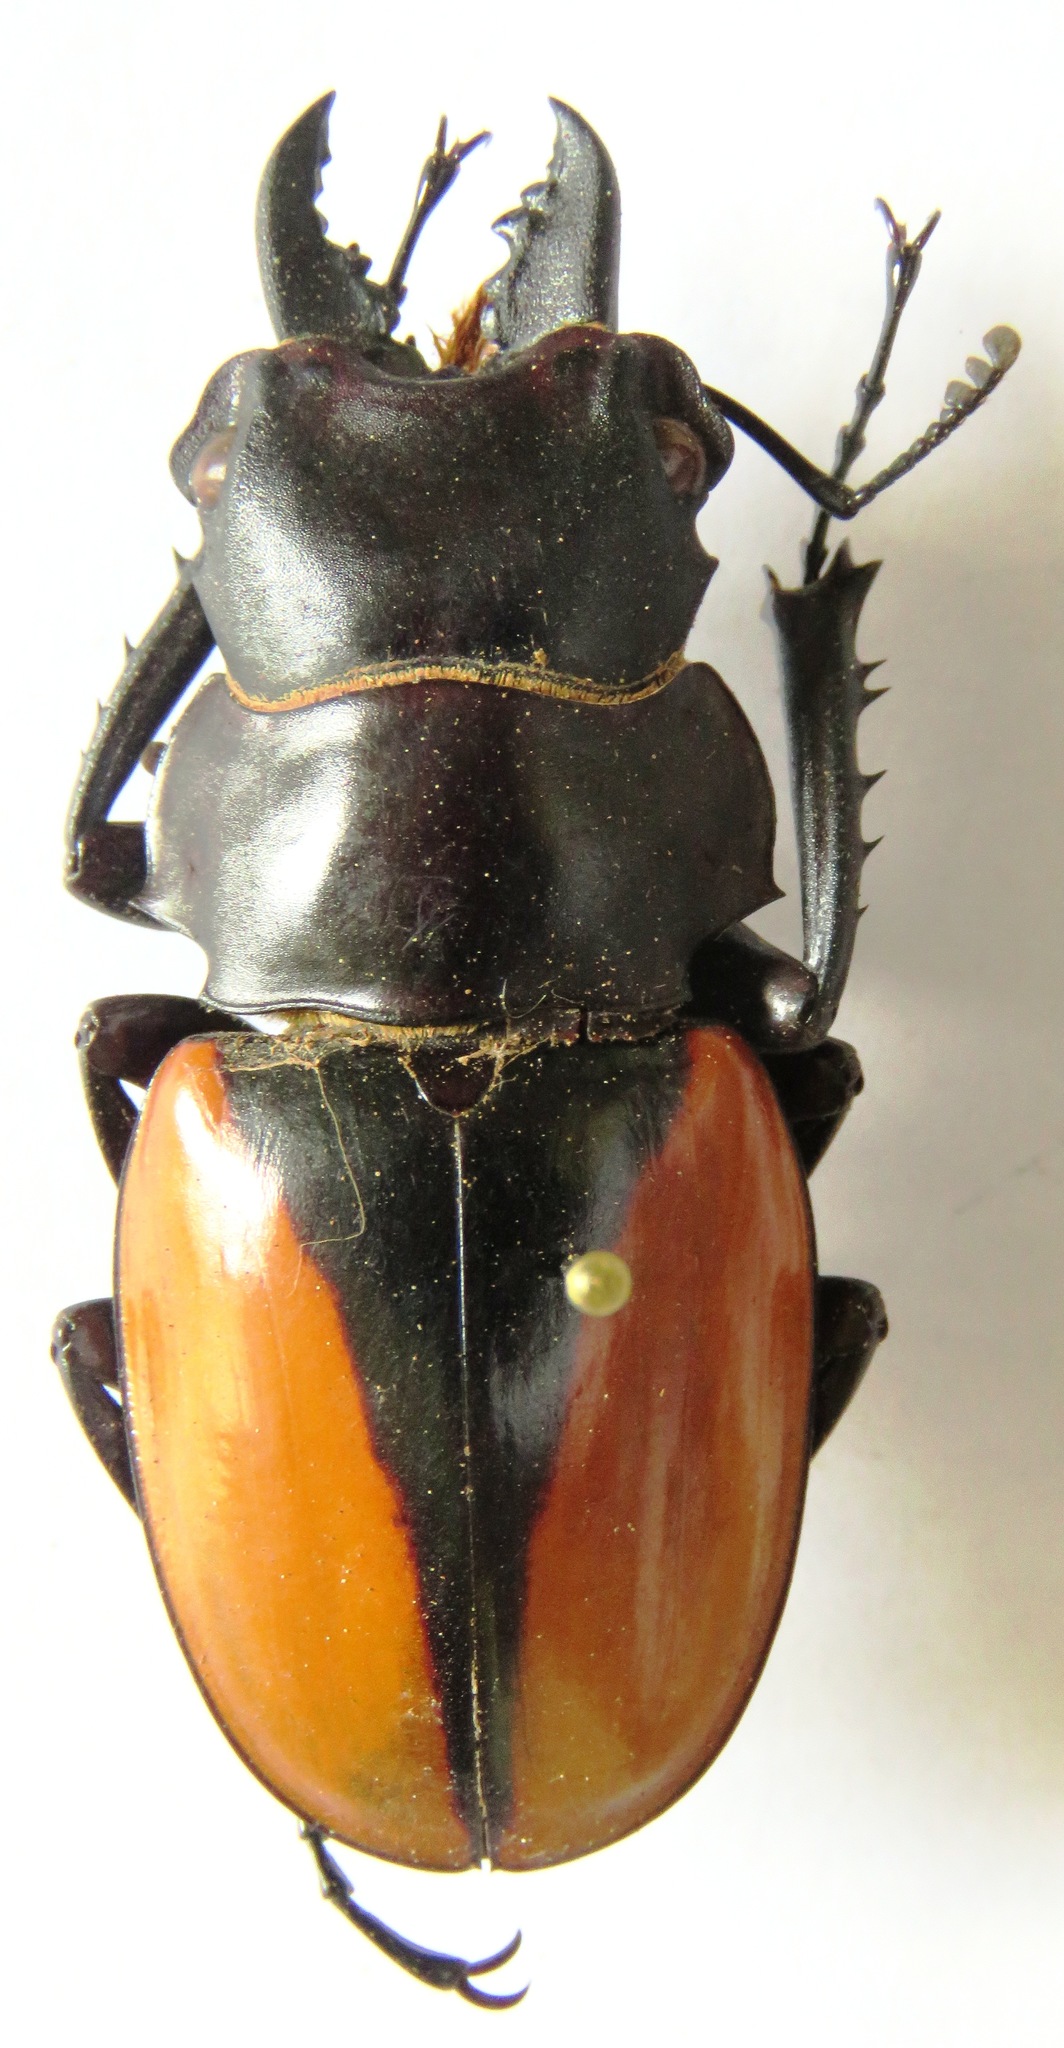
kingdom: Animalia
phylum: Arthropoda
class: Insecta
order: Coleoptera
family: Lucanidae
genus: Odontolabis
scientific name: Odontolabis cuvera
